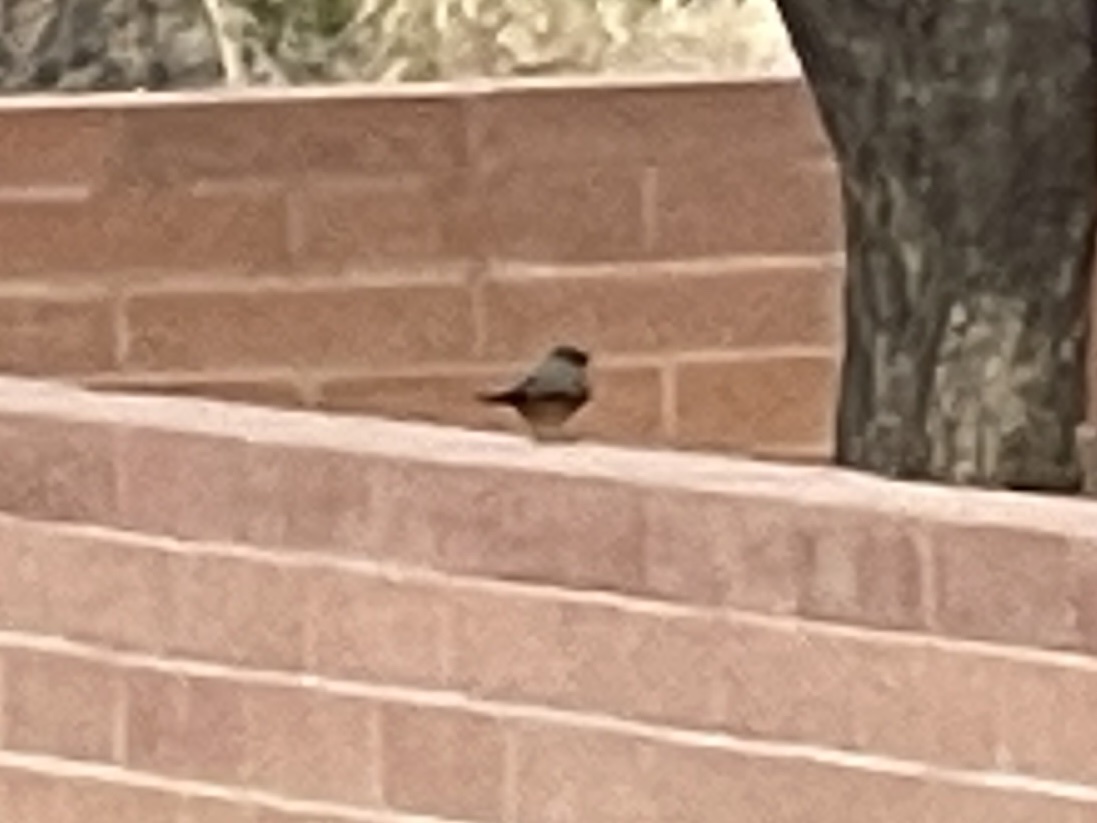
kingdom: Animalia
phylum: Chordata
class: Aves
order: Passeriformes
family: Tyrannidae
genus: Sayornis
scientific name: Sayornis saya
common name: Say's phoebe
